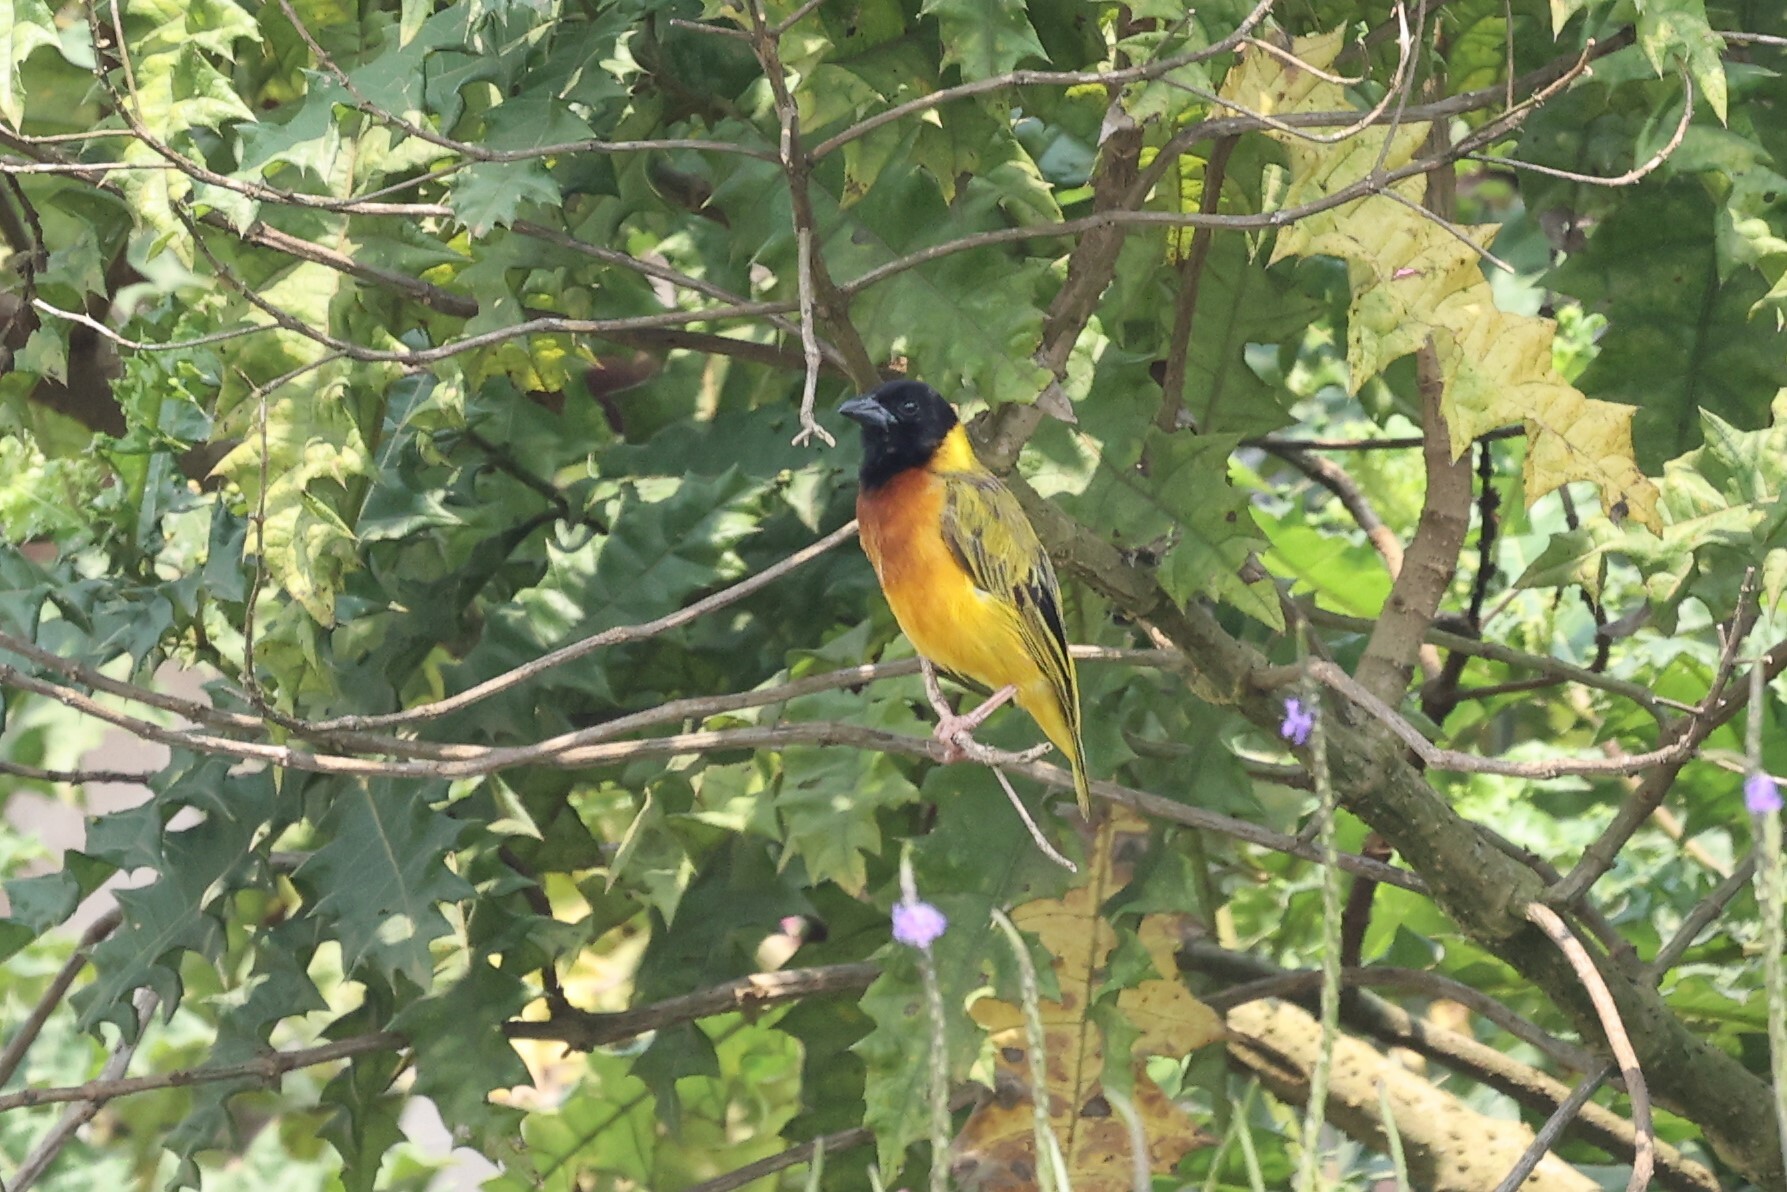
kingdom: Animalia
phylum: Chordata
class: Aves
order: Passeriformes
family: Ploceidae
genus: Ploceus
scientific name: Ploceus melanocephalus
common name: Black-headed weaver
